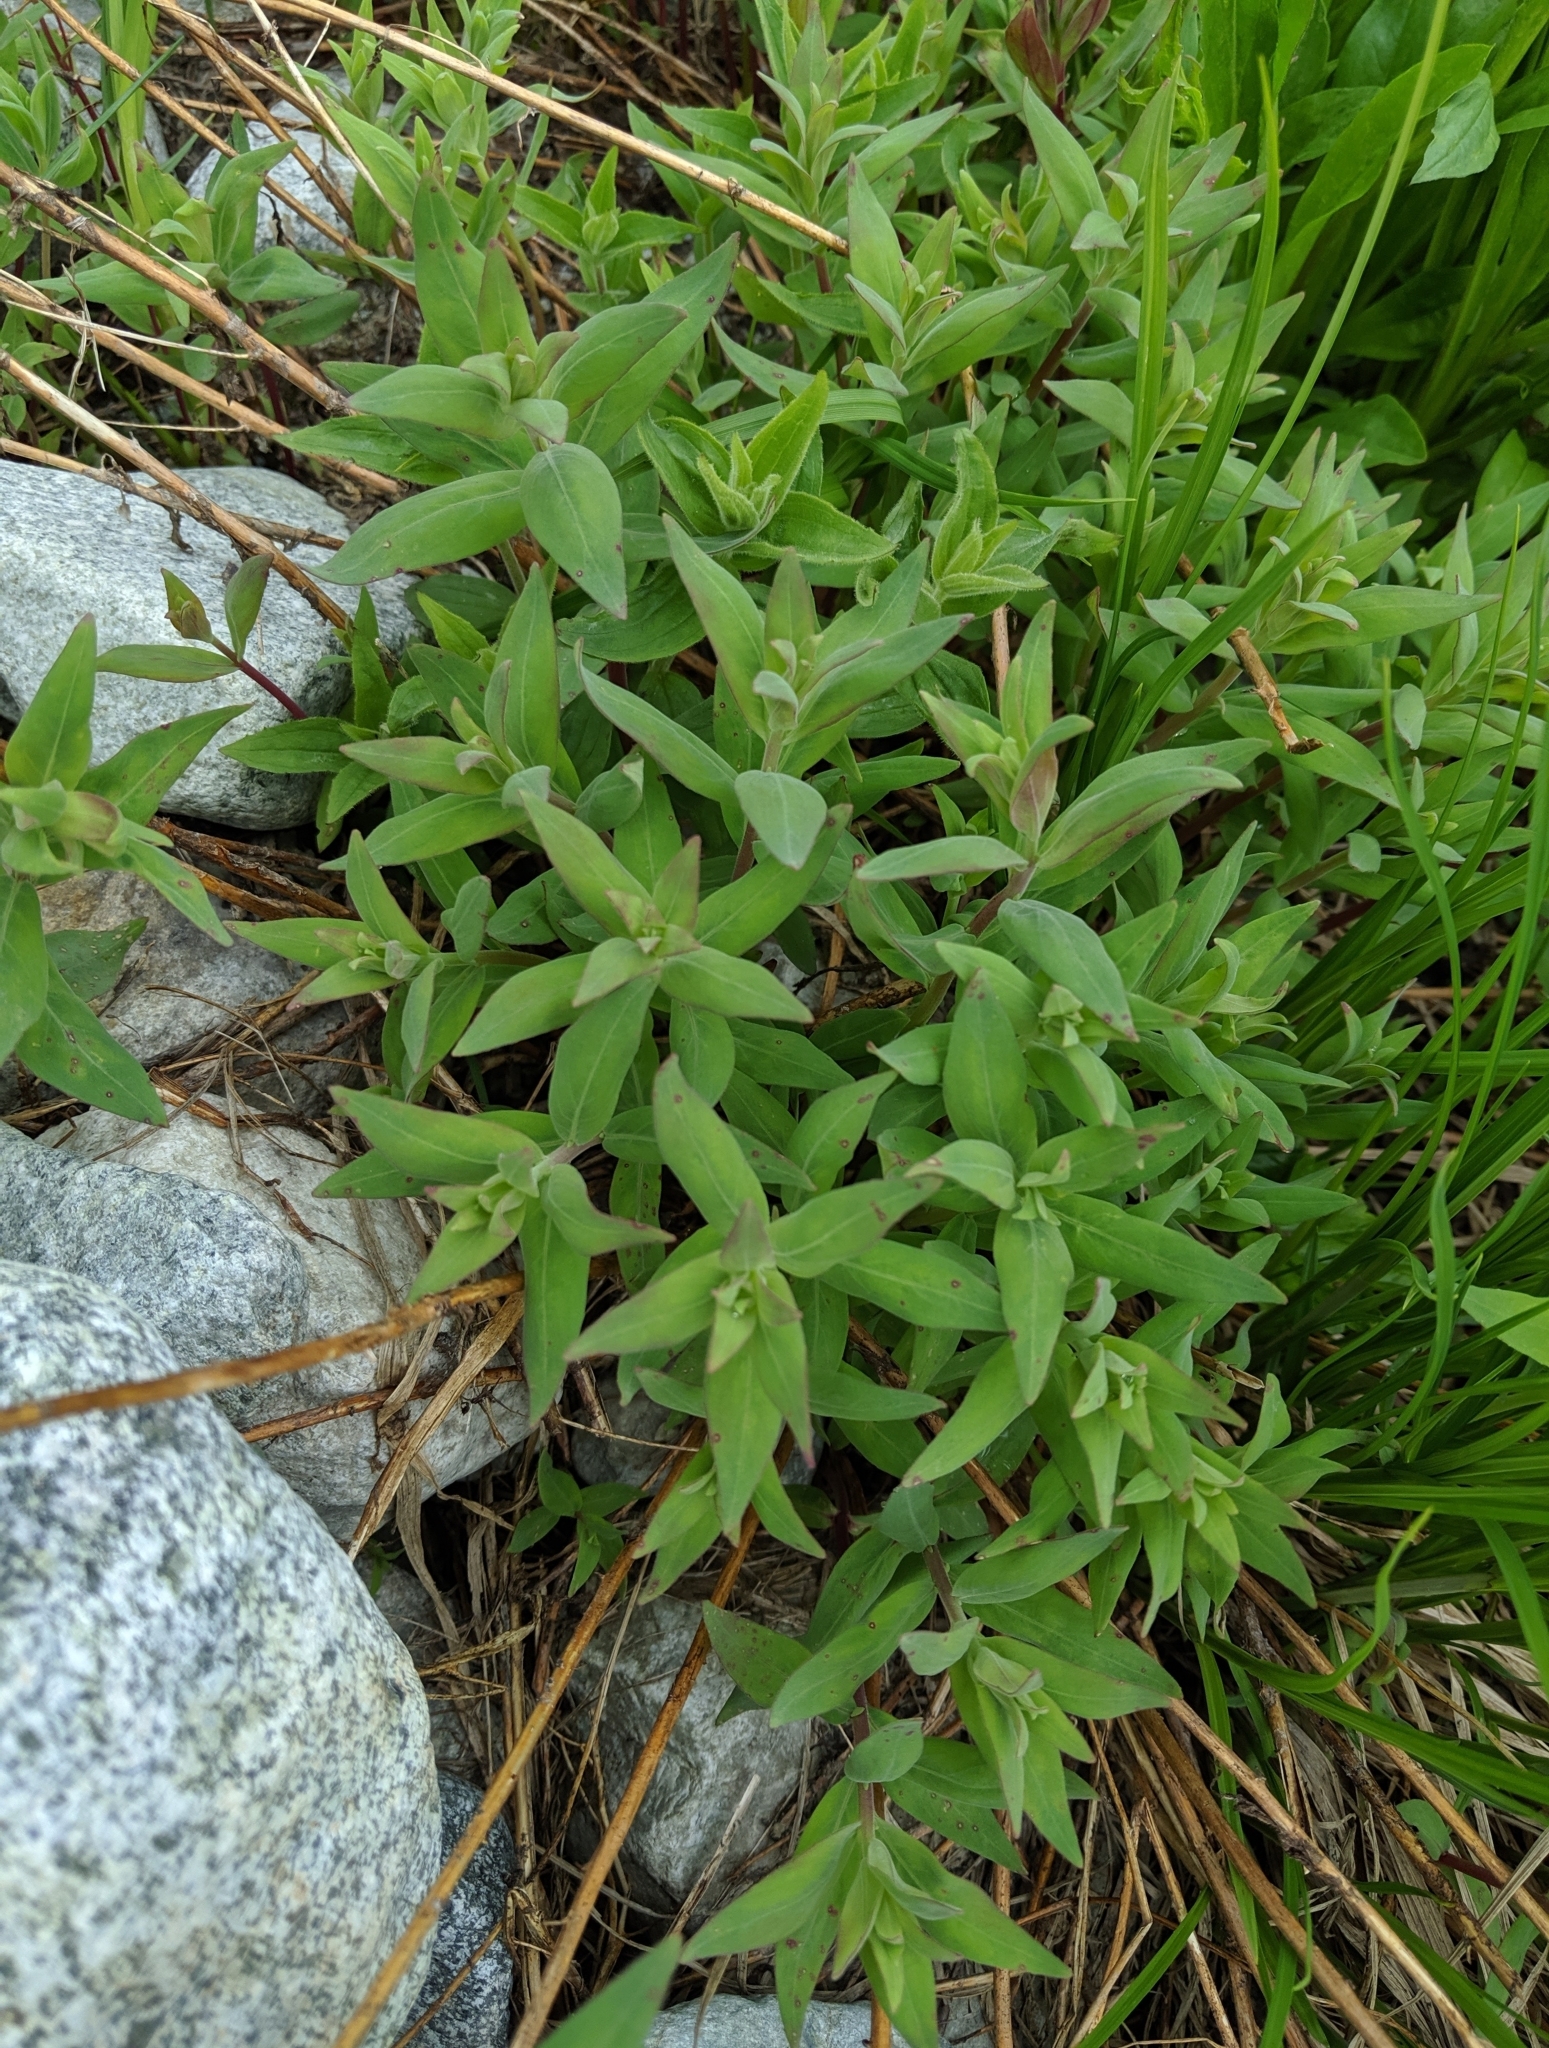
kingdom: Plantae
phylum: Tracheophyta
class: Magnoliopsida
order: Myrtales
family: Onagraceae
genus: Chamaenerion
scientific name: Chamaenerion latifolium
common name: Dwarf fireweed
